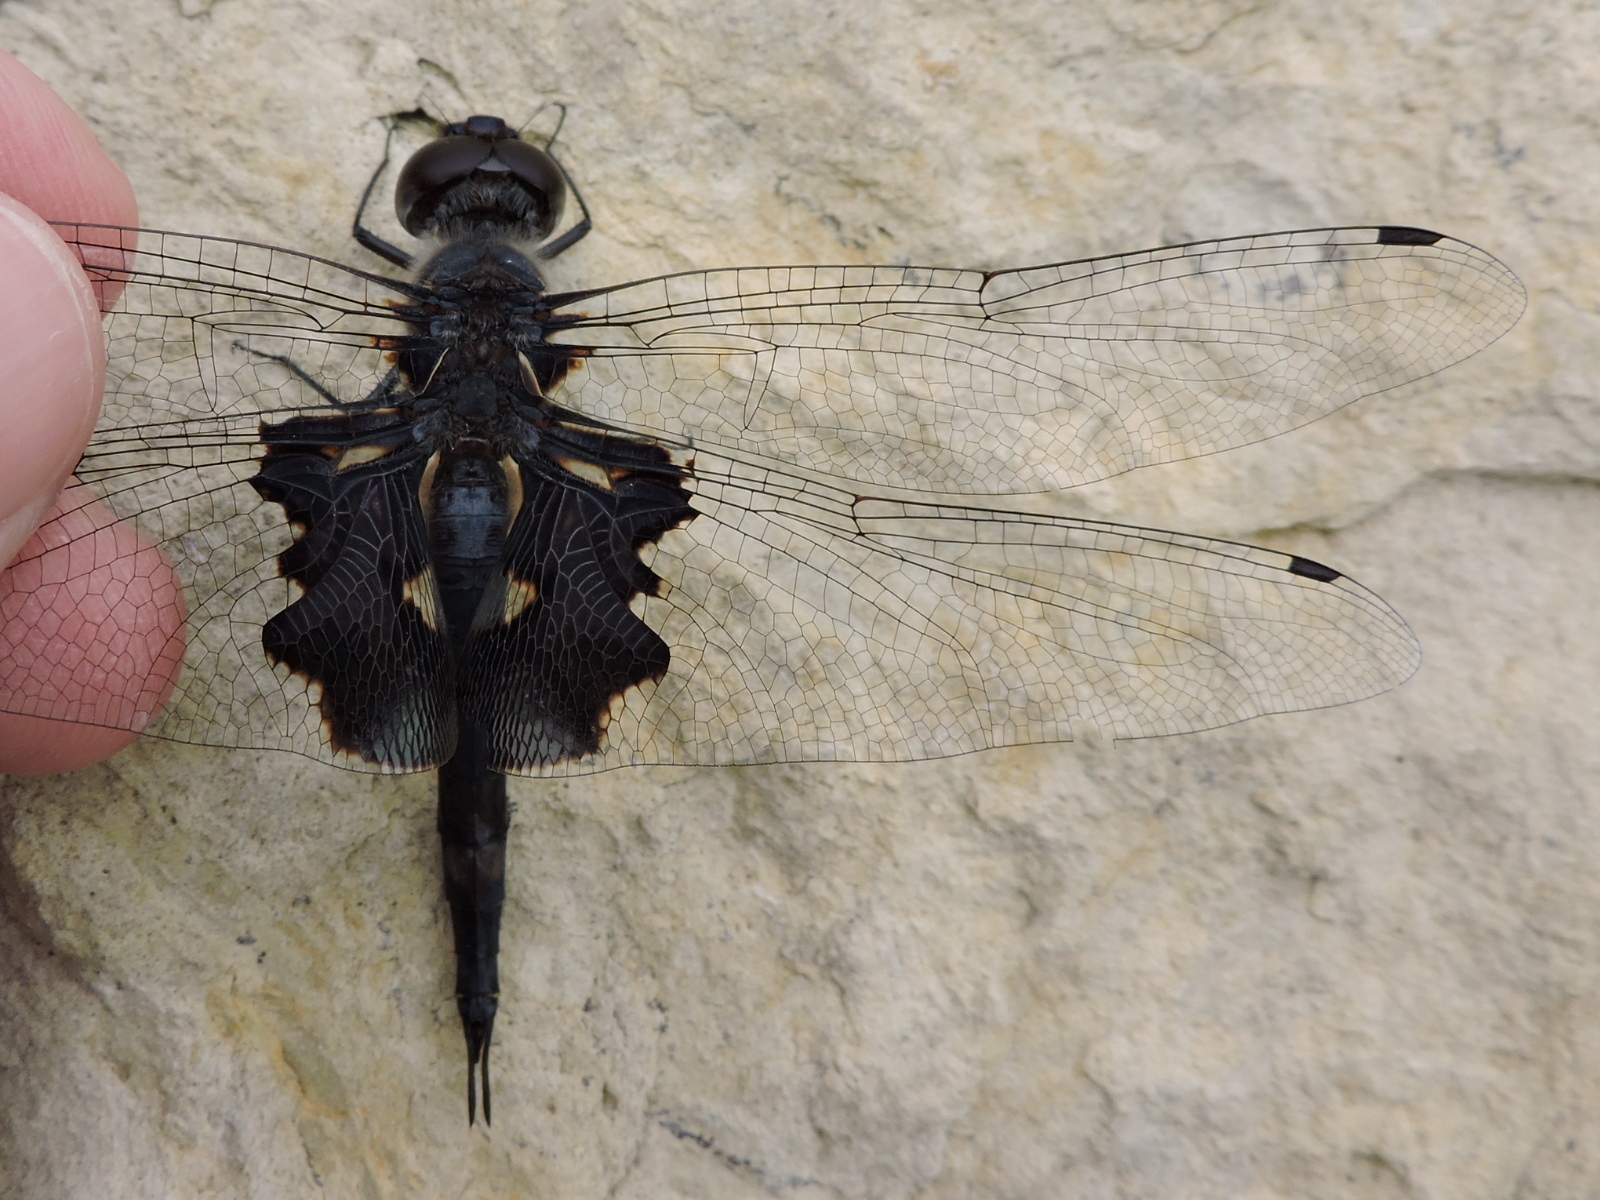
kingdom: Animalia
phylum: Arthropoda
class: Insecta
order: Odonata
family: Libellulidae
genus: Tramea
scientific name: Tramea lacerata
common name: Black saddlebags
